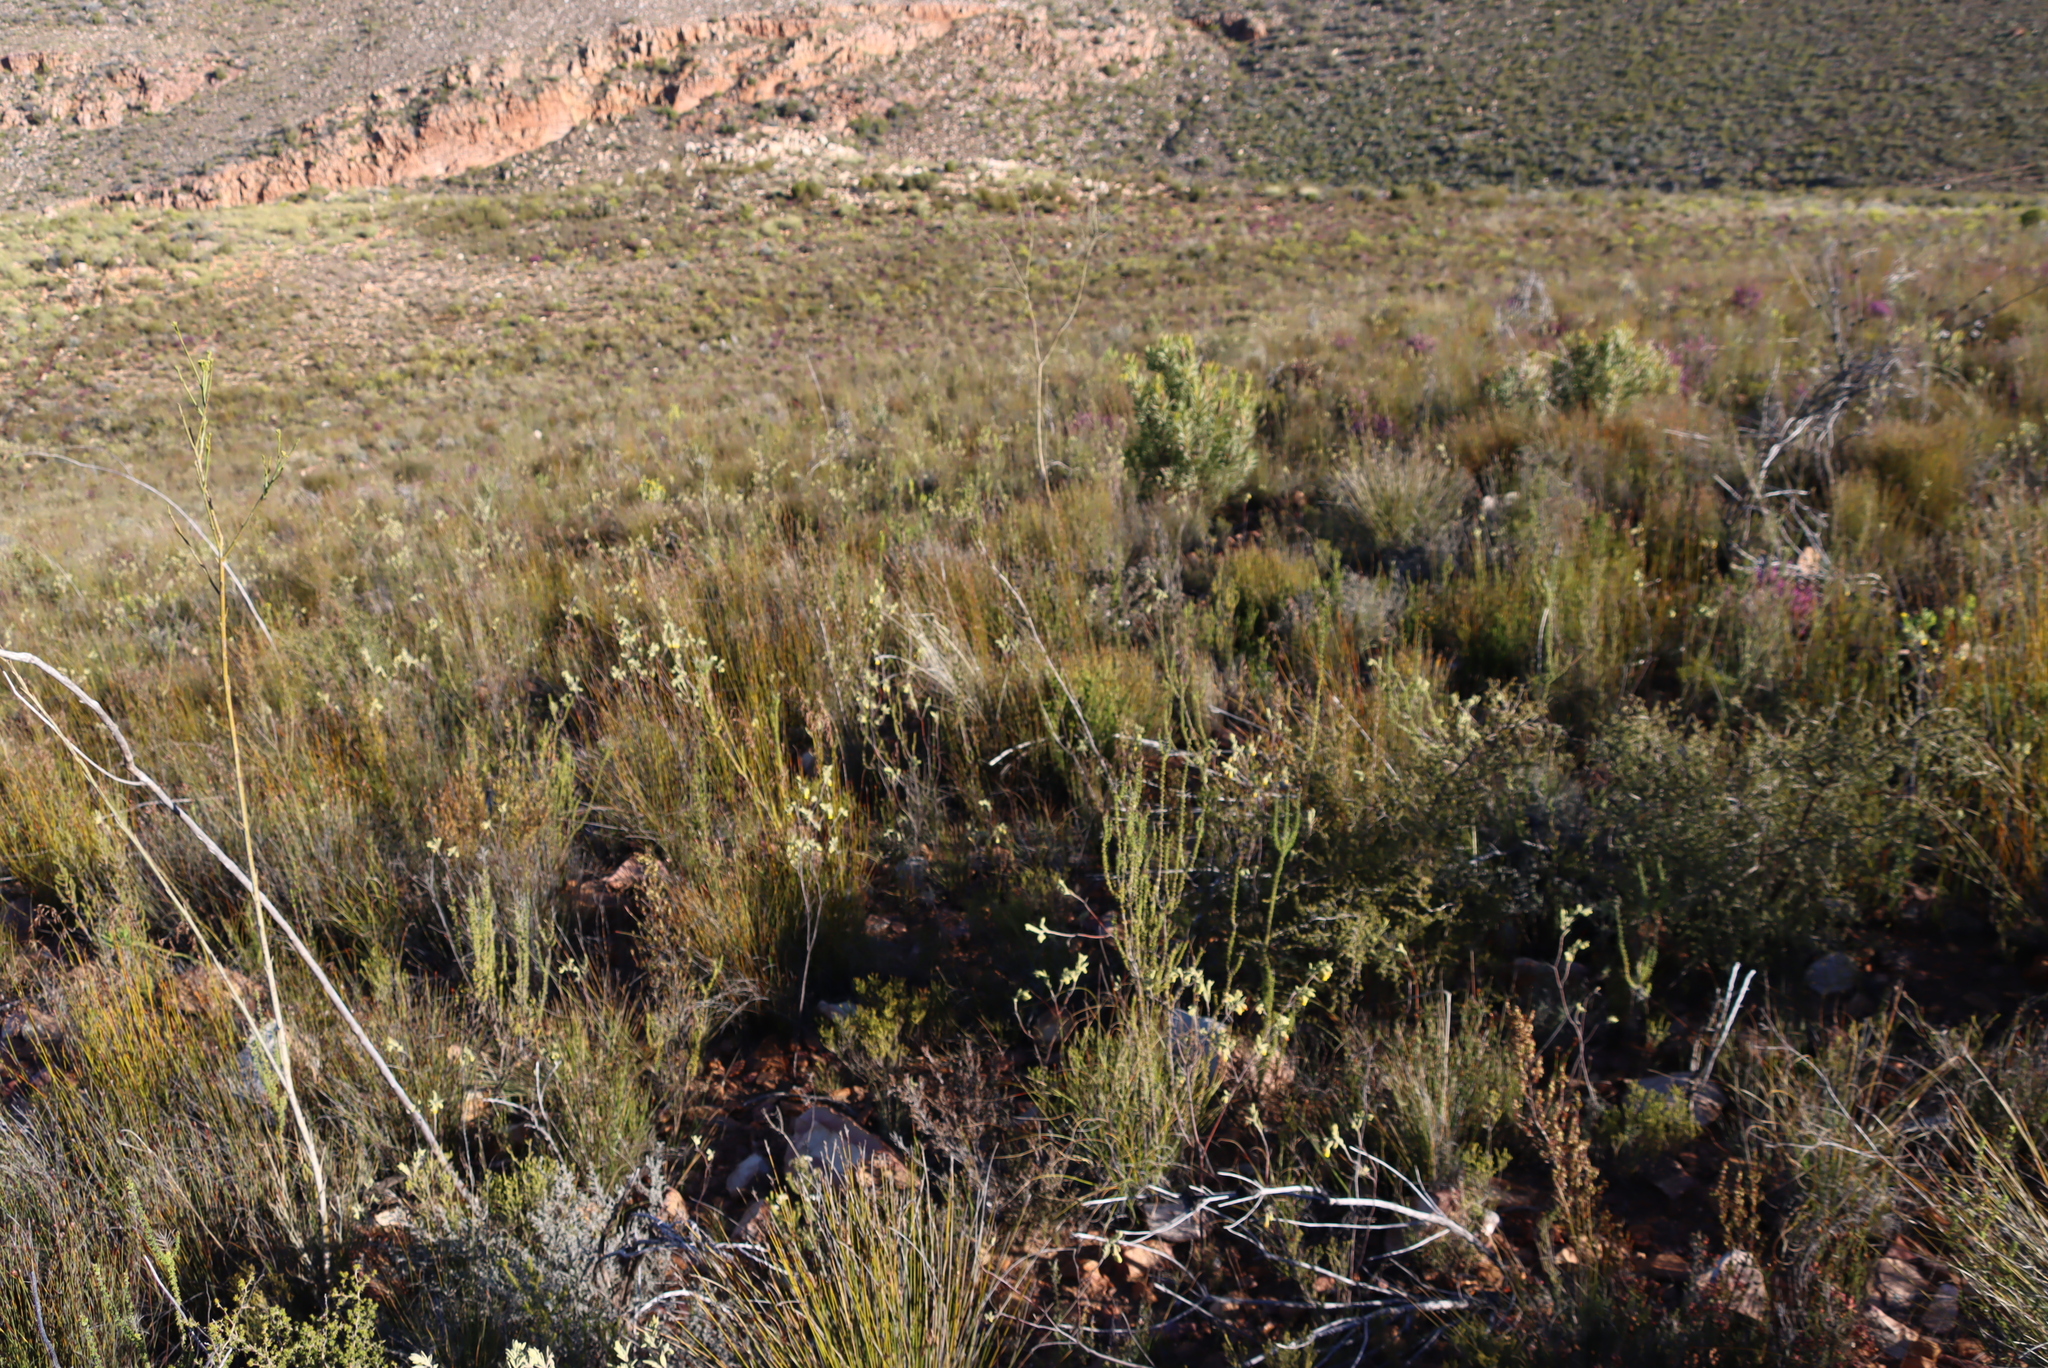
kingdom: Plantae
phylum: Tracheophyta
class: Magnoliopsida
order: Malvales
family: Malvaceae
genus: Hermannia
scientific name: Hermannia velutina
